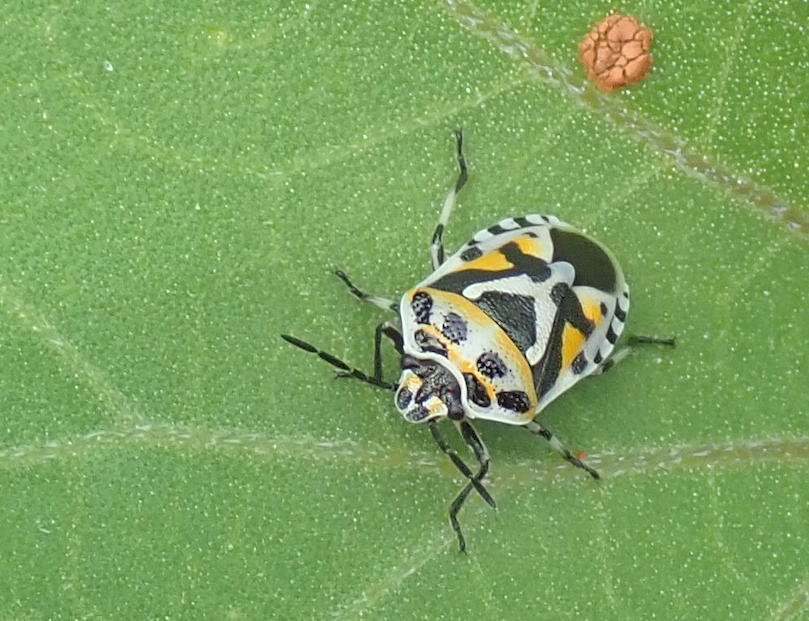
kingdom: Animalia
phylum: Arthropoda
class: Insecta
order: Hemiptera
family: Pentatomidae
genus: Eurydema
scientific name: Eurydema ventralis
